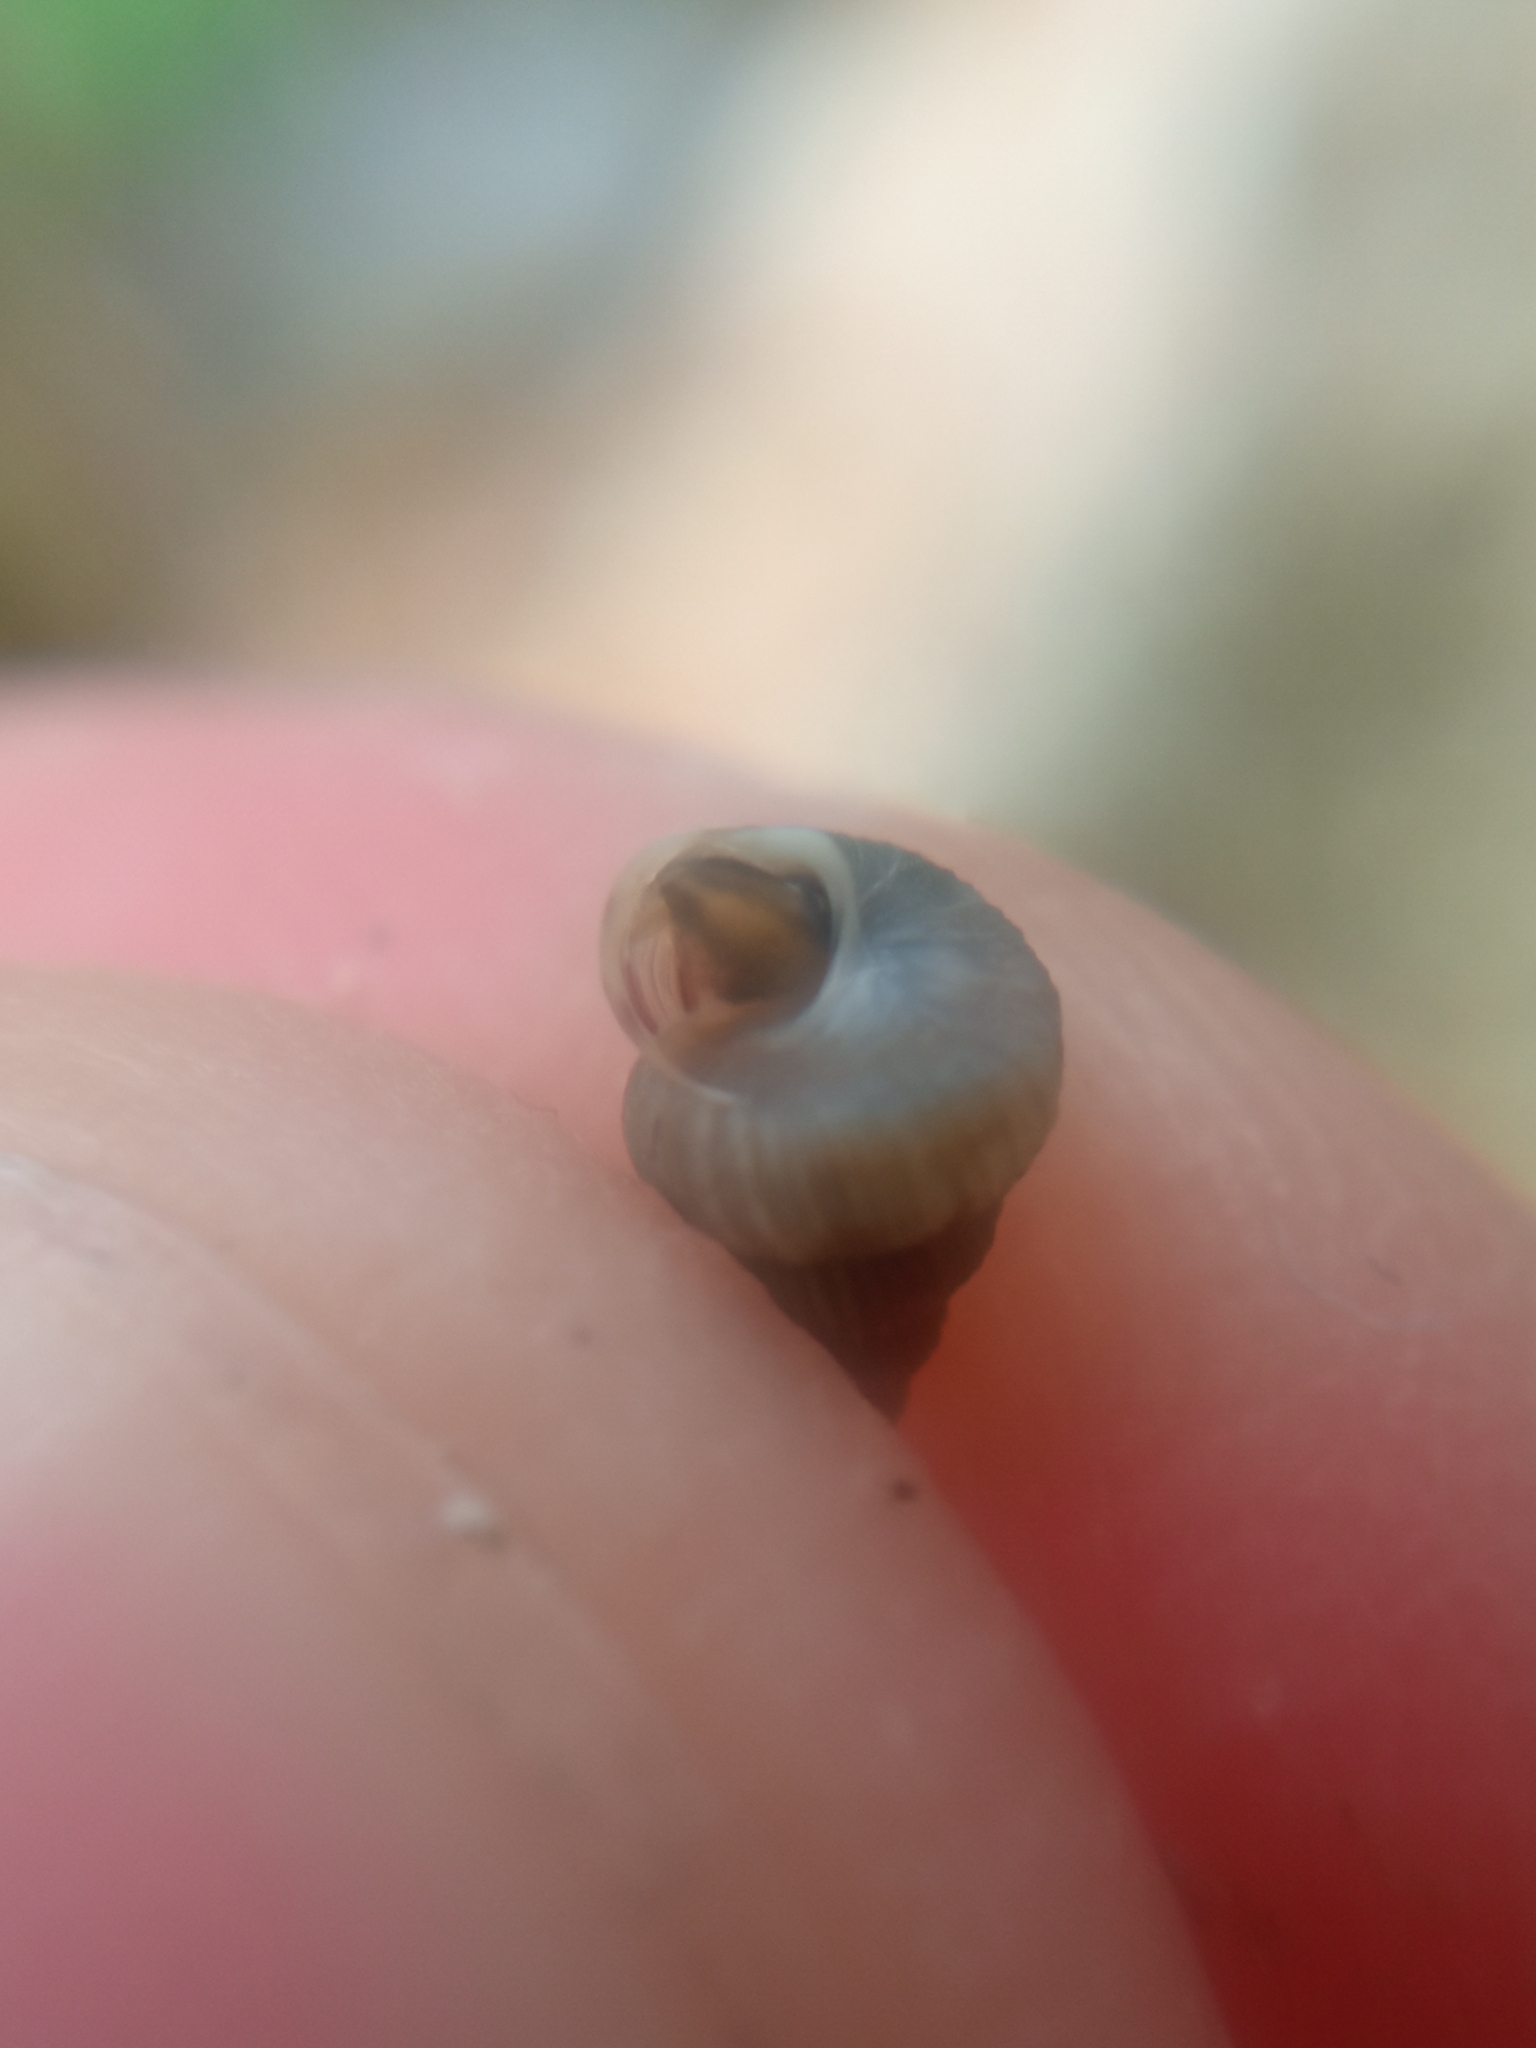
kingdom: Animalia
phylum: Mollusca
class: Gastropoda
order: Architaenioglossa
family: Cochlostomatidae
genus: Cochlostoma
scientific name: Cochlostoma septemspirale
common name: Seven-whorl snail
